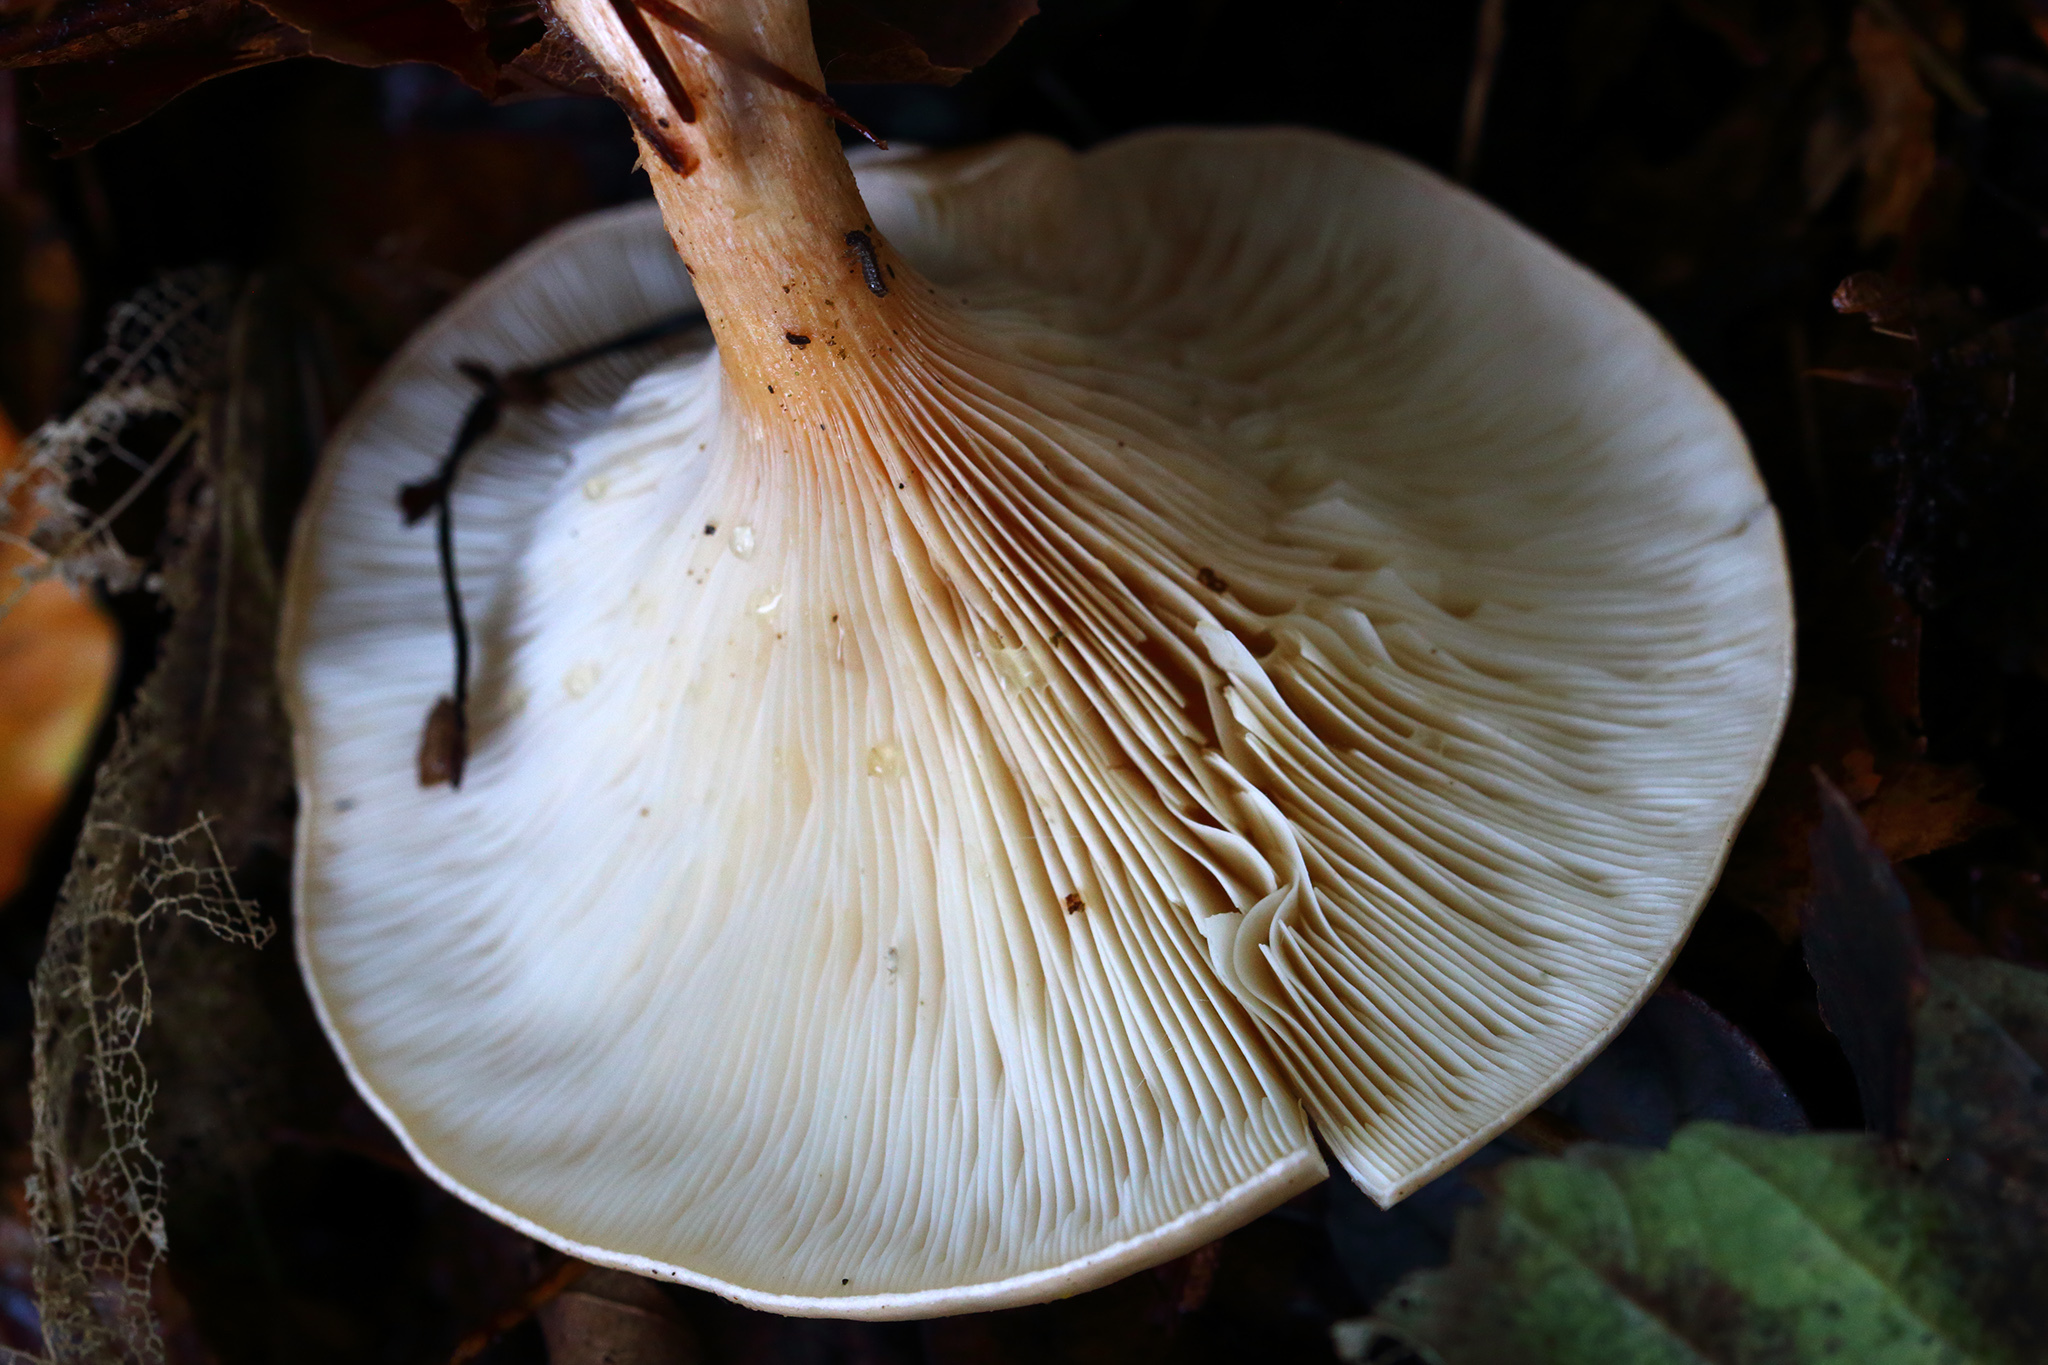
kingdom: Fungi
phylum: Basidiomycota
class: Agaricomycetes
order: Agaricales
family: Tricholomataceae
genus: Paralepista
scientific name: Paralepista flaccida
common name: Tawny funnel cap
